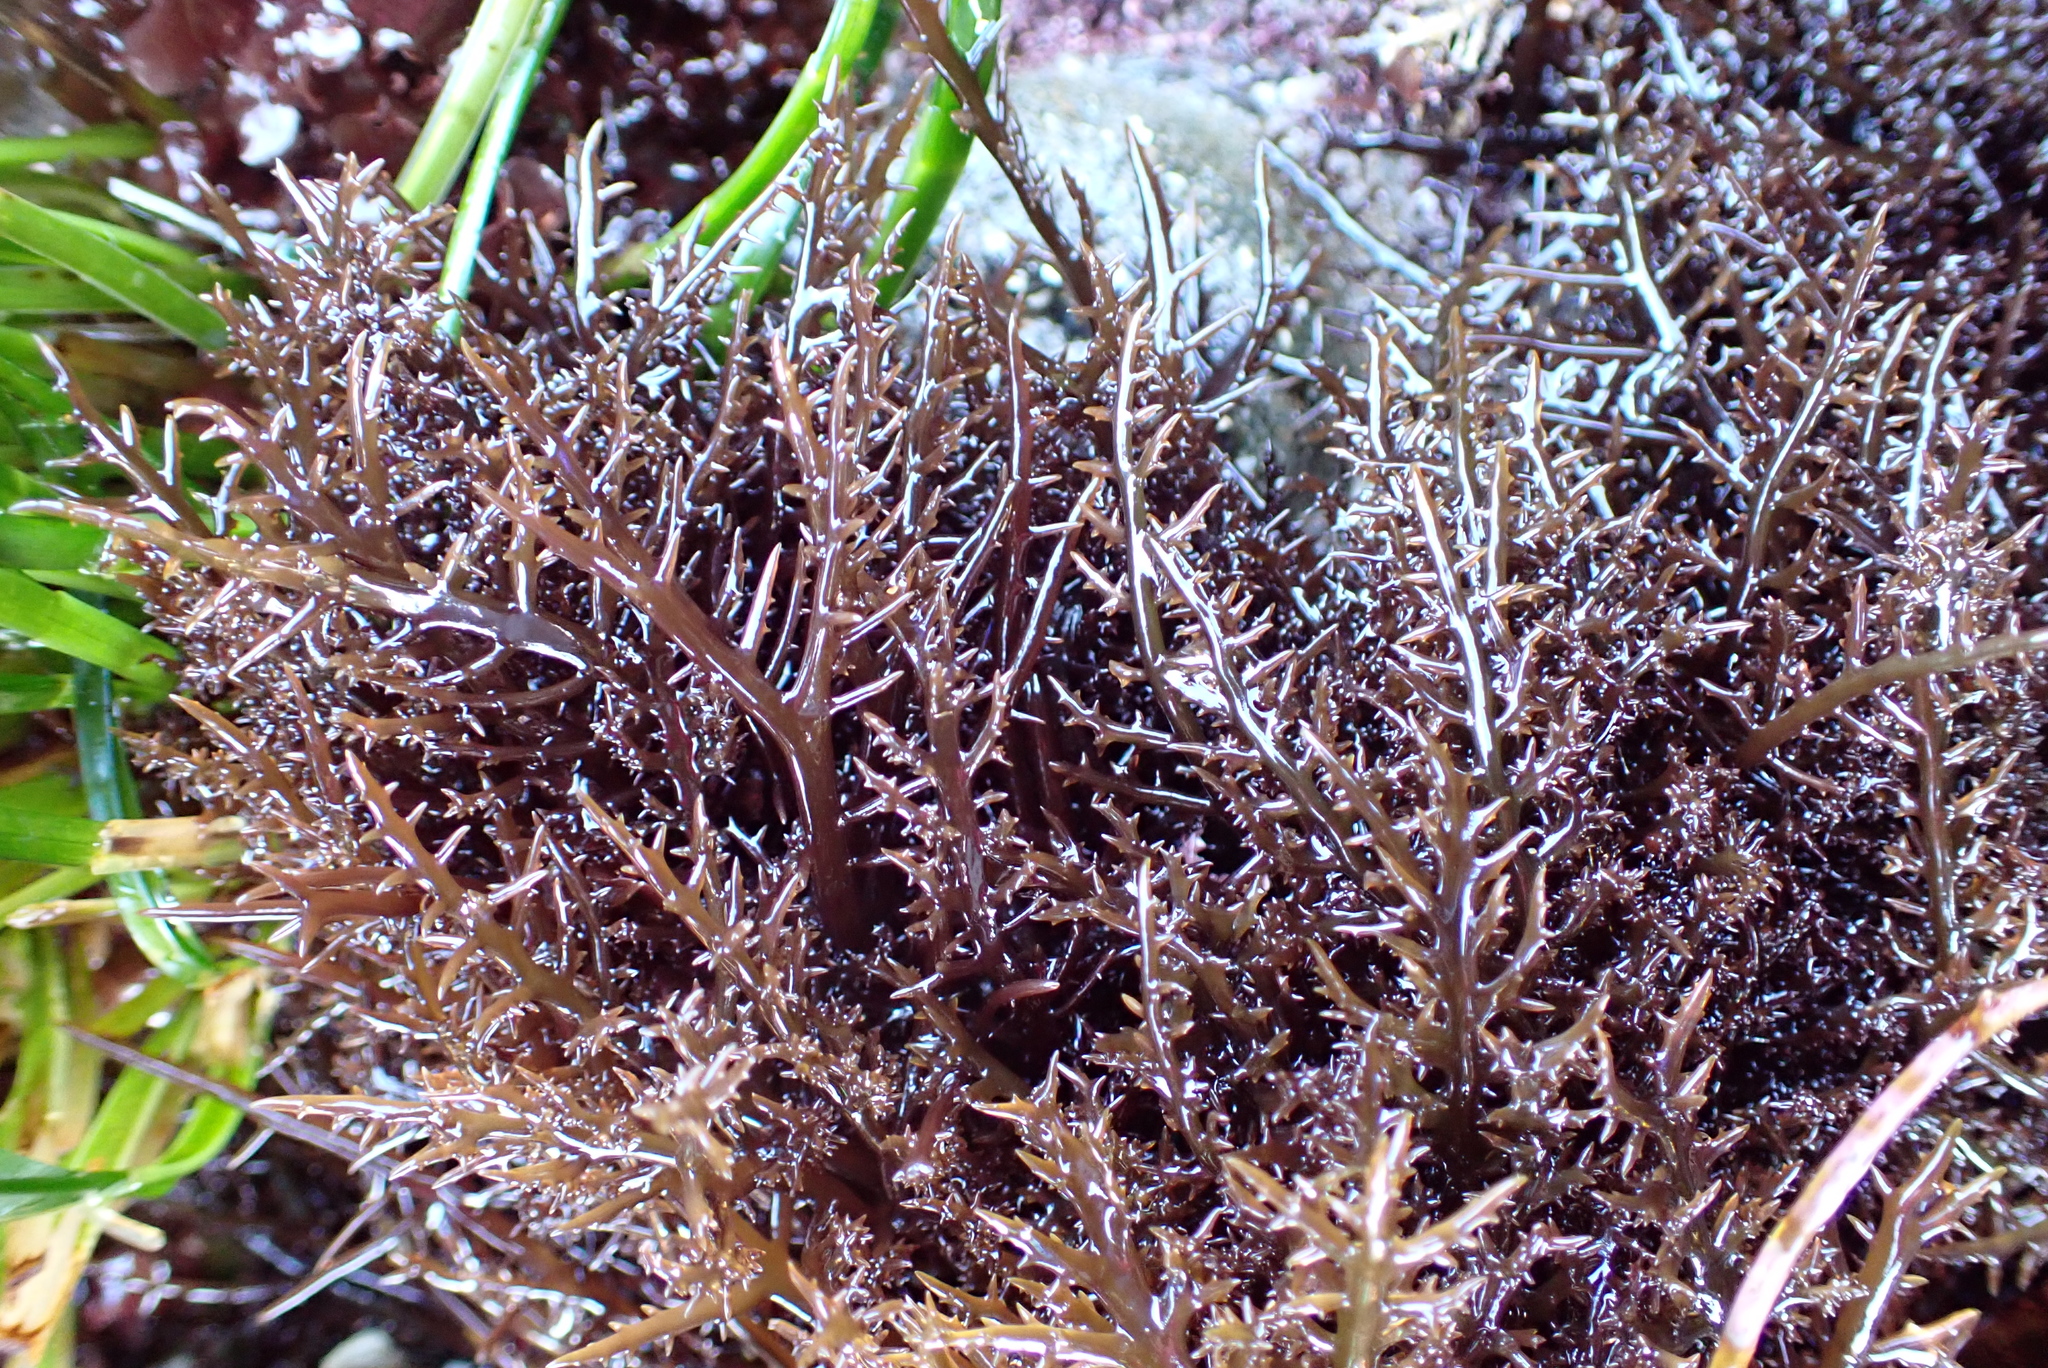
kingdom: Plantae
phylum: Rhodophyta
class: Florideophyceae
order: Gigartinales
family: Gigartinaceae
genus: Chondracanthus
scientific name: Chondracanthus canaliculatus
